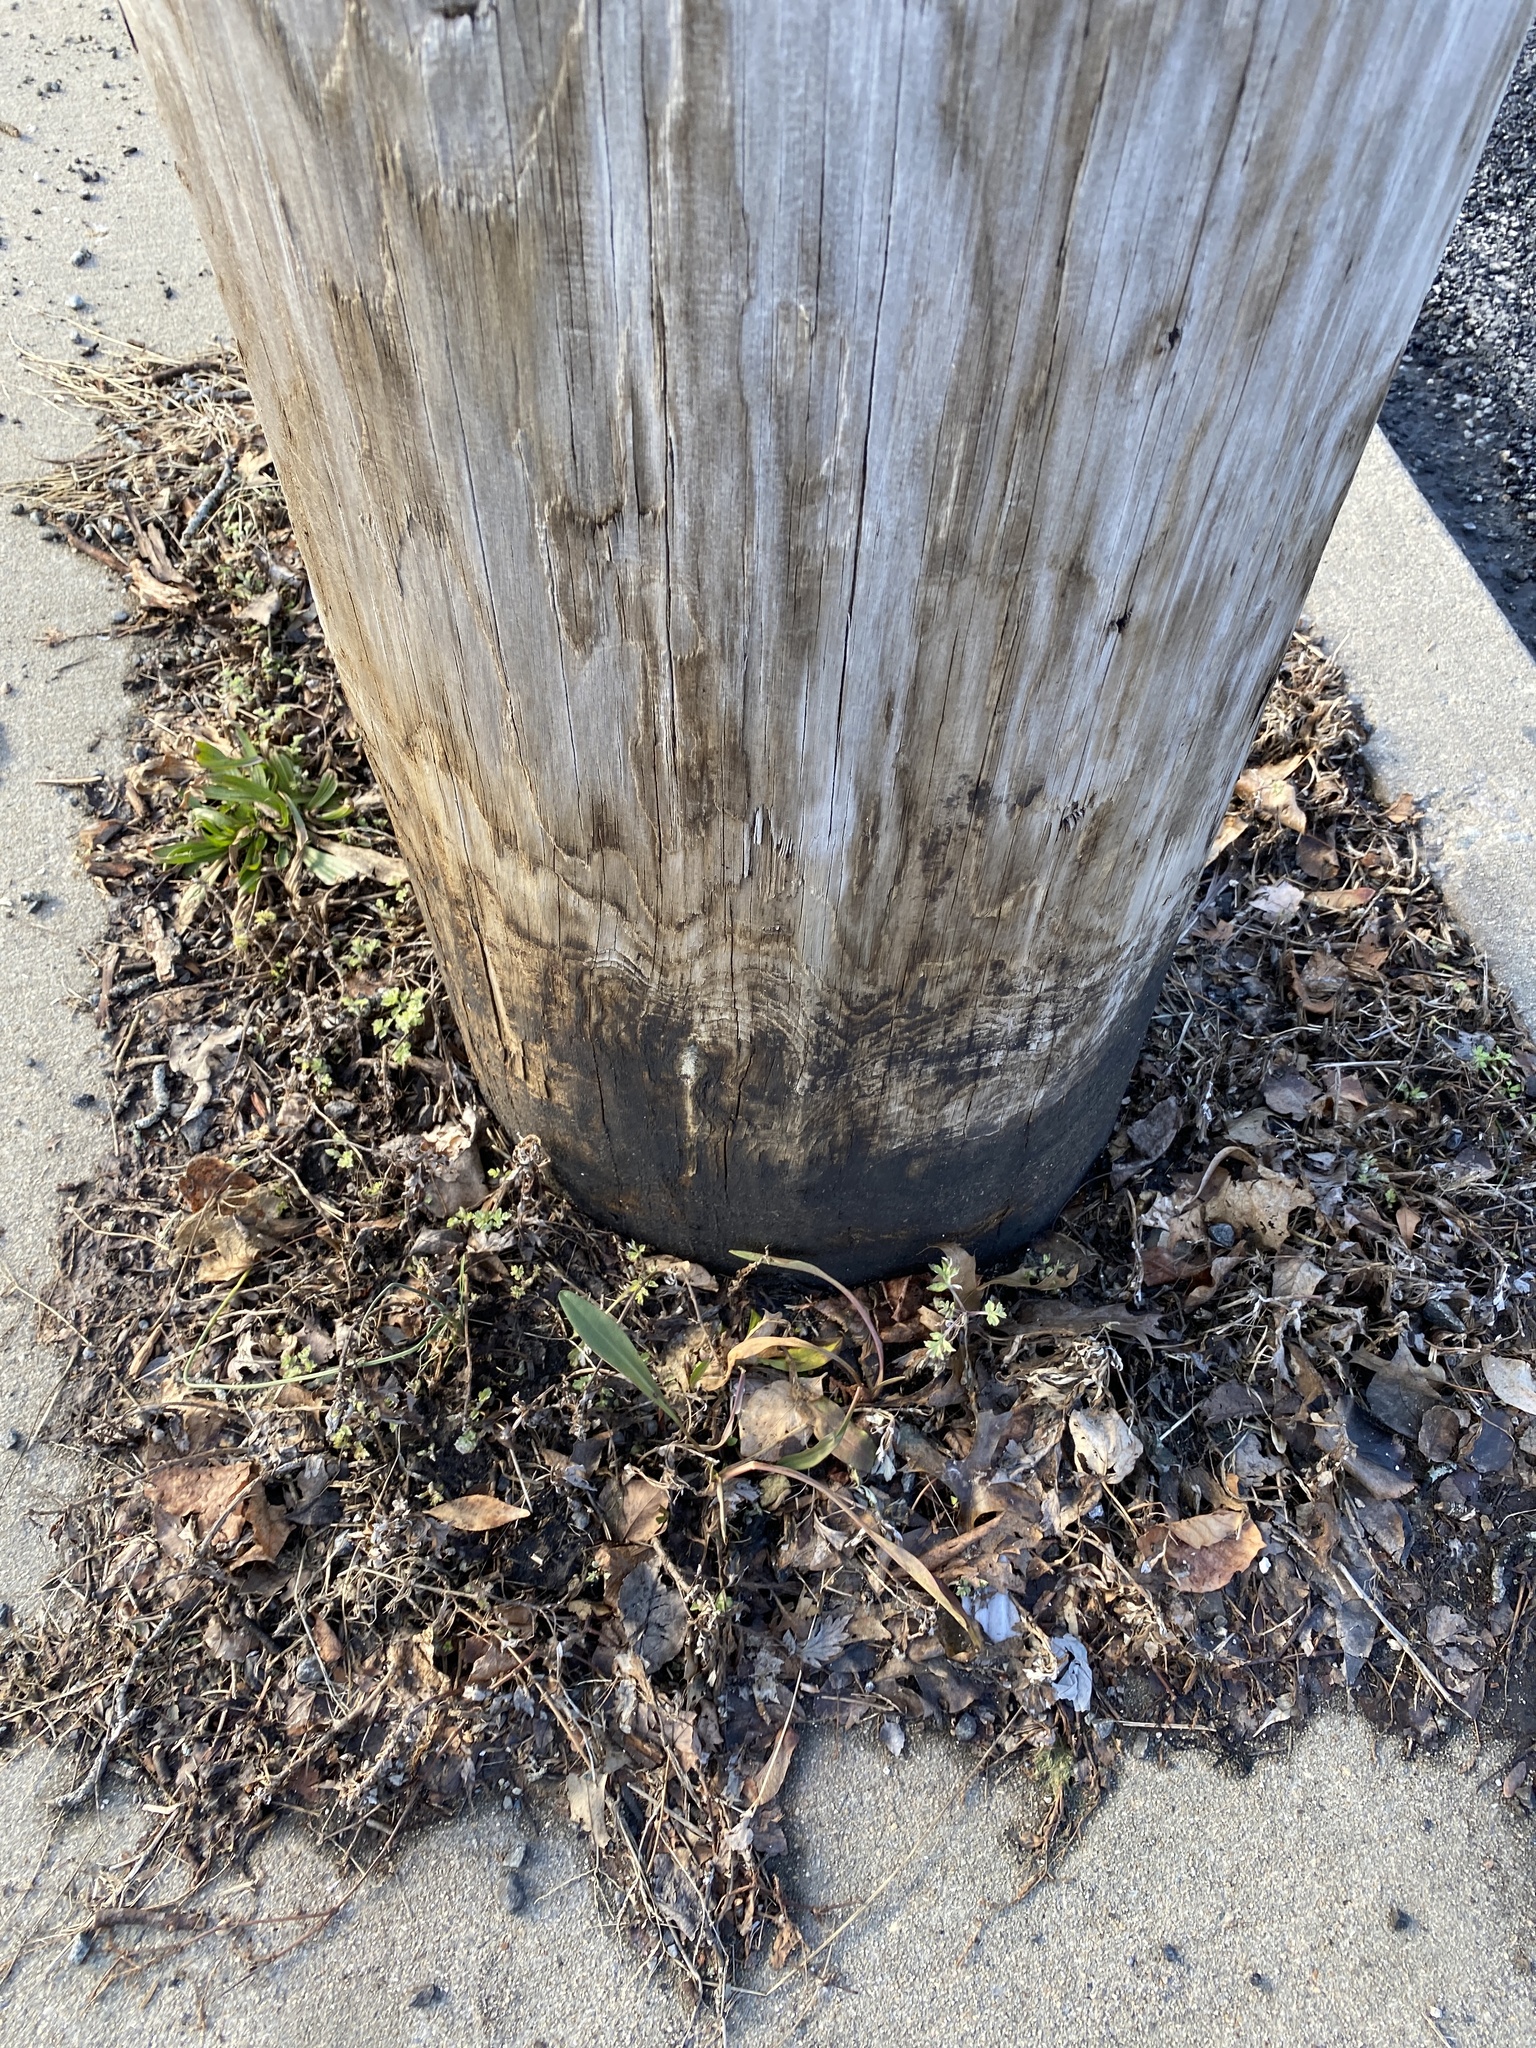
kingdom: Plantae
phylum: Tracheophyta
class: Magnoliopsida
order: Asterales
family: Asteraceae
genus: Solidago
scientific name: Solidago sempervirens
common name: Salt-marsh goldenrod
